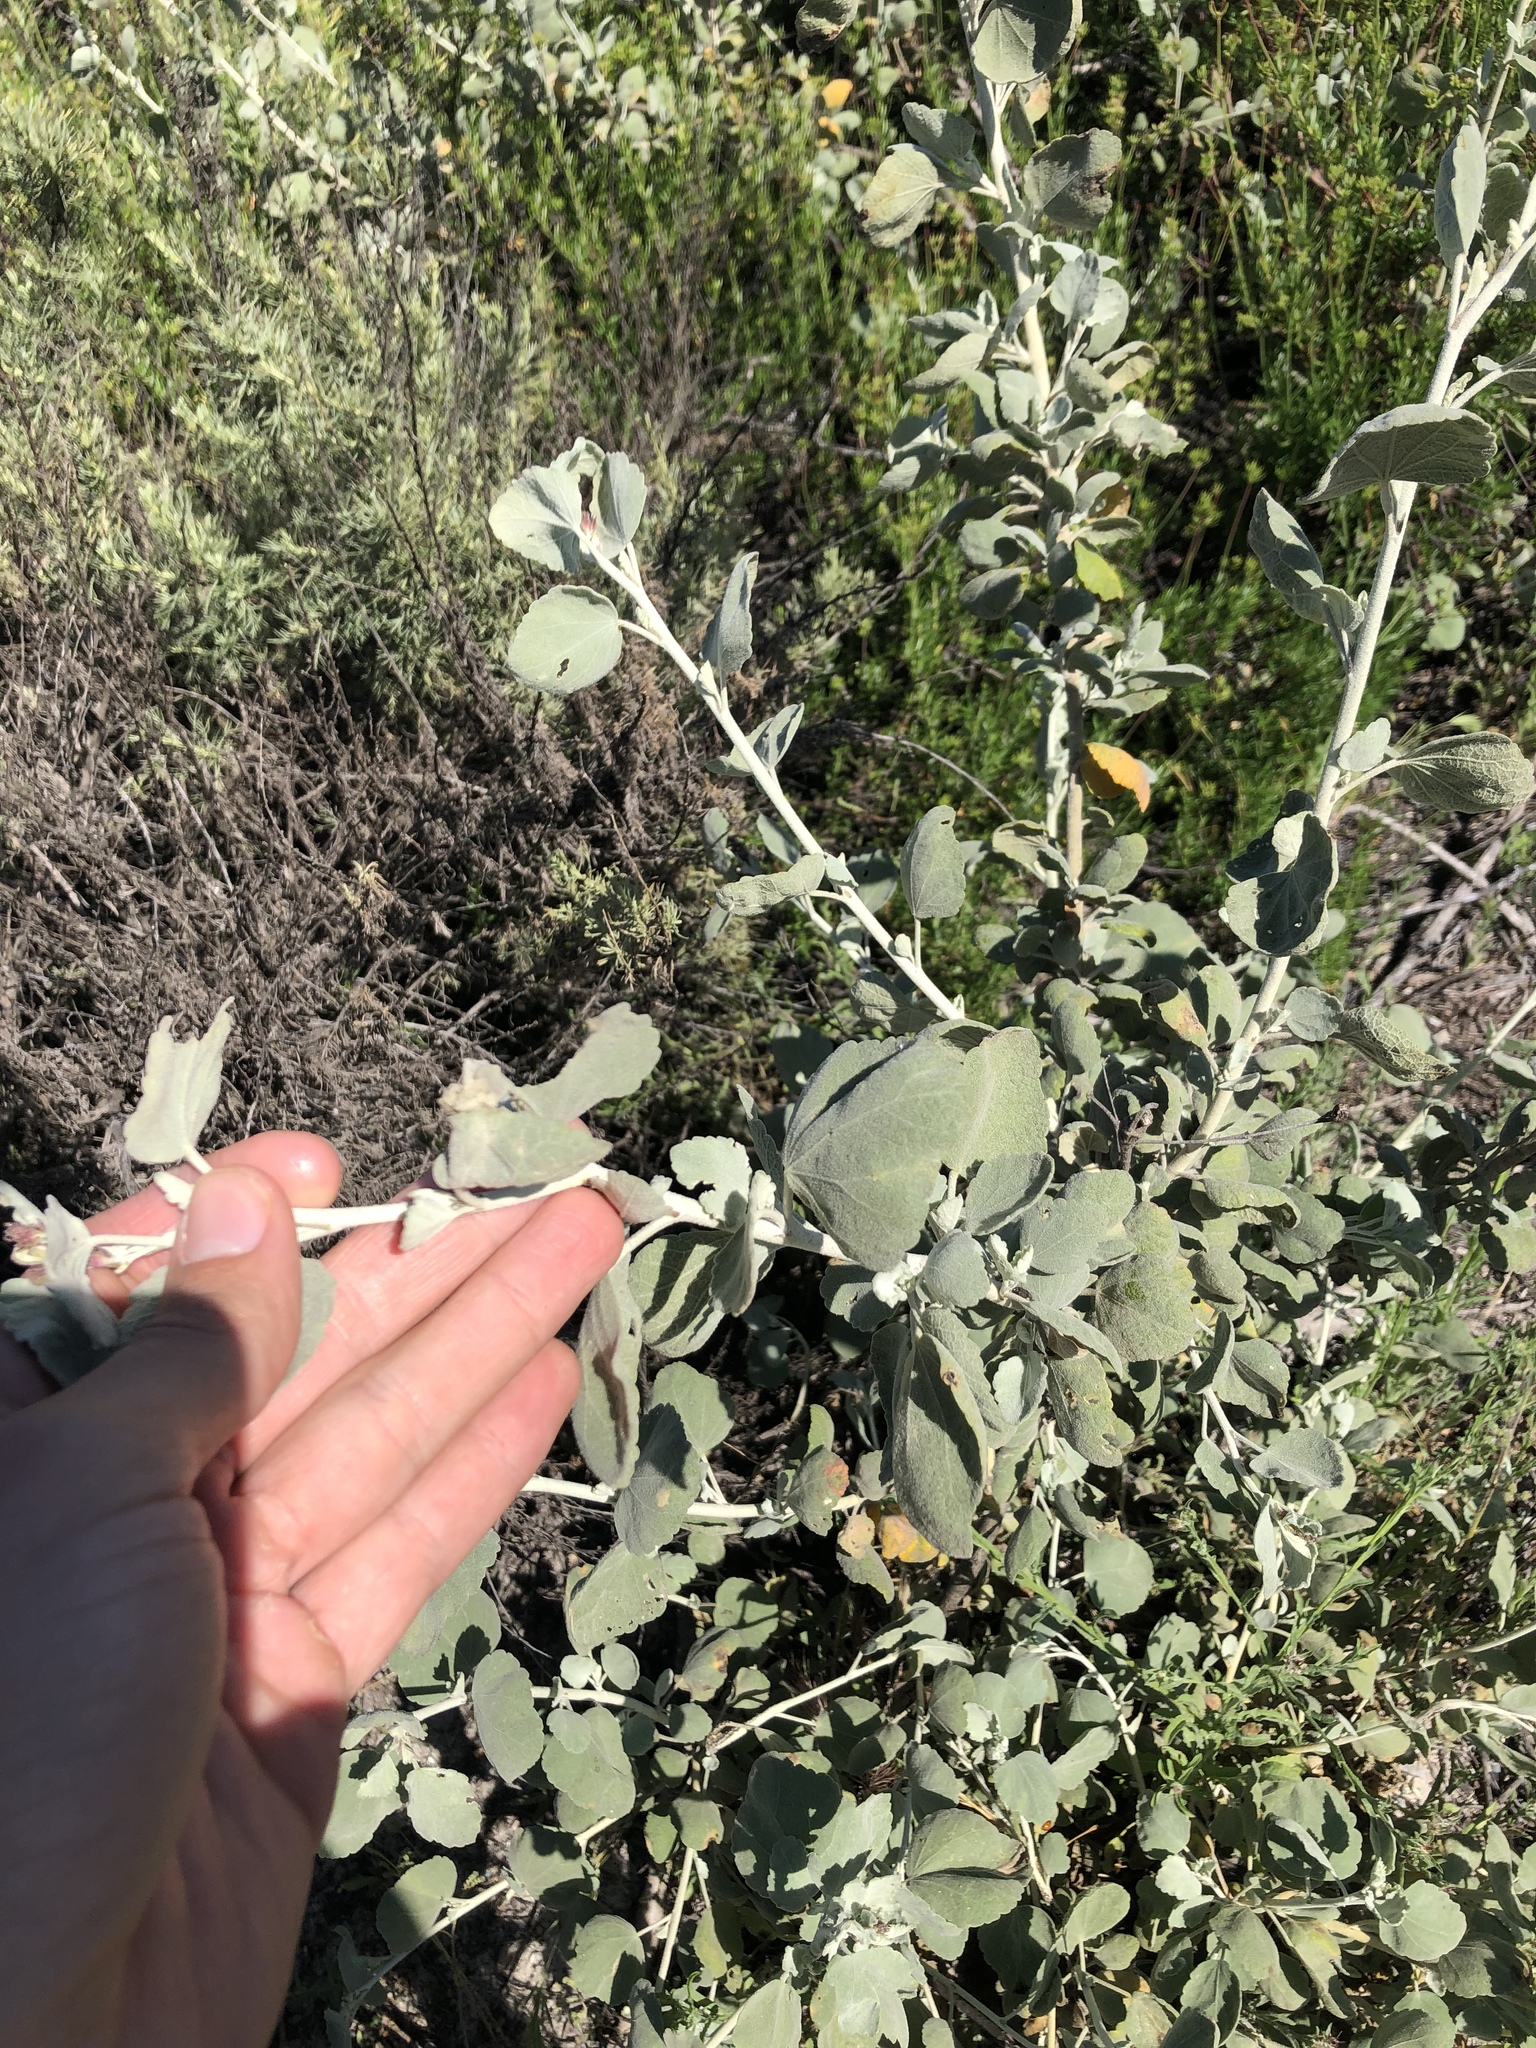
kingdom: Plantae
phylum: Tracheophyta
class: Magnoliopsida
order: Malvales
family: Malvaceae
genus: Malacothamnus
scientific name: Malacothamnus jonesii
